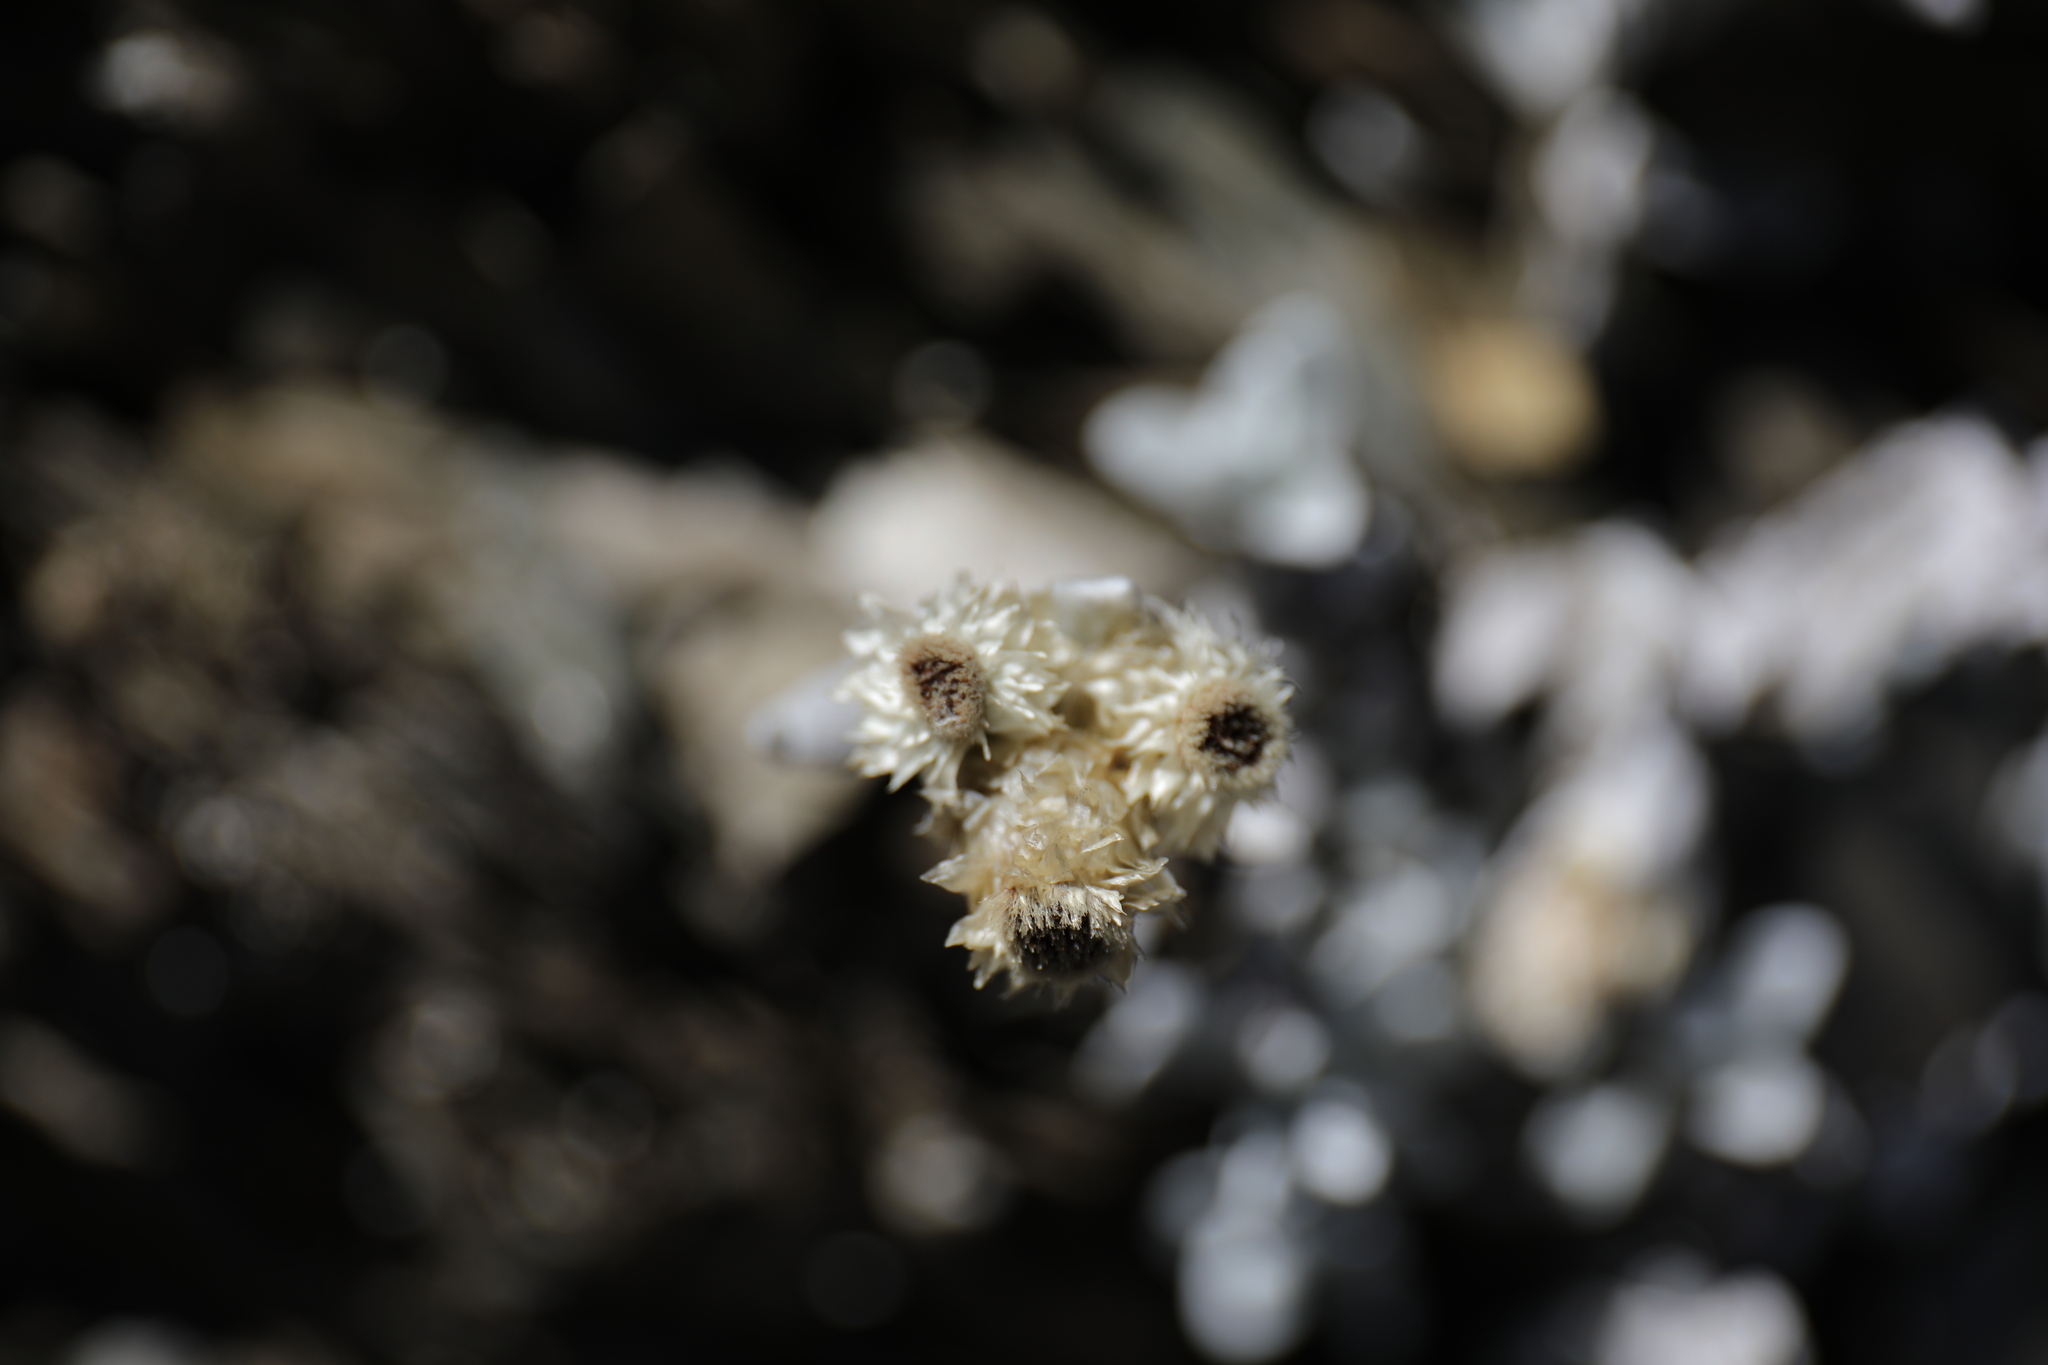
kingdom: Plantae
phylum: Tracheophyta
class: Magnoliopsida
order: Asterales
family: Asteraceae
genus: Anaphalis
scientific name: Anaphalis nepalensis
